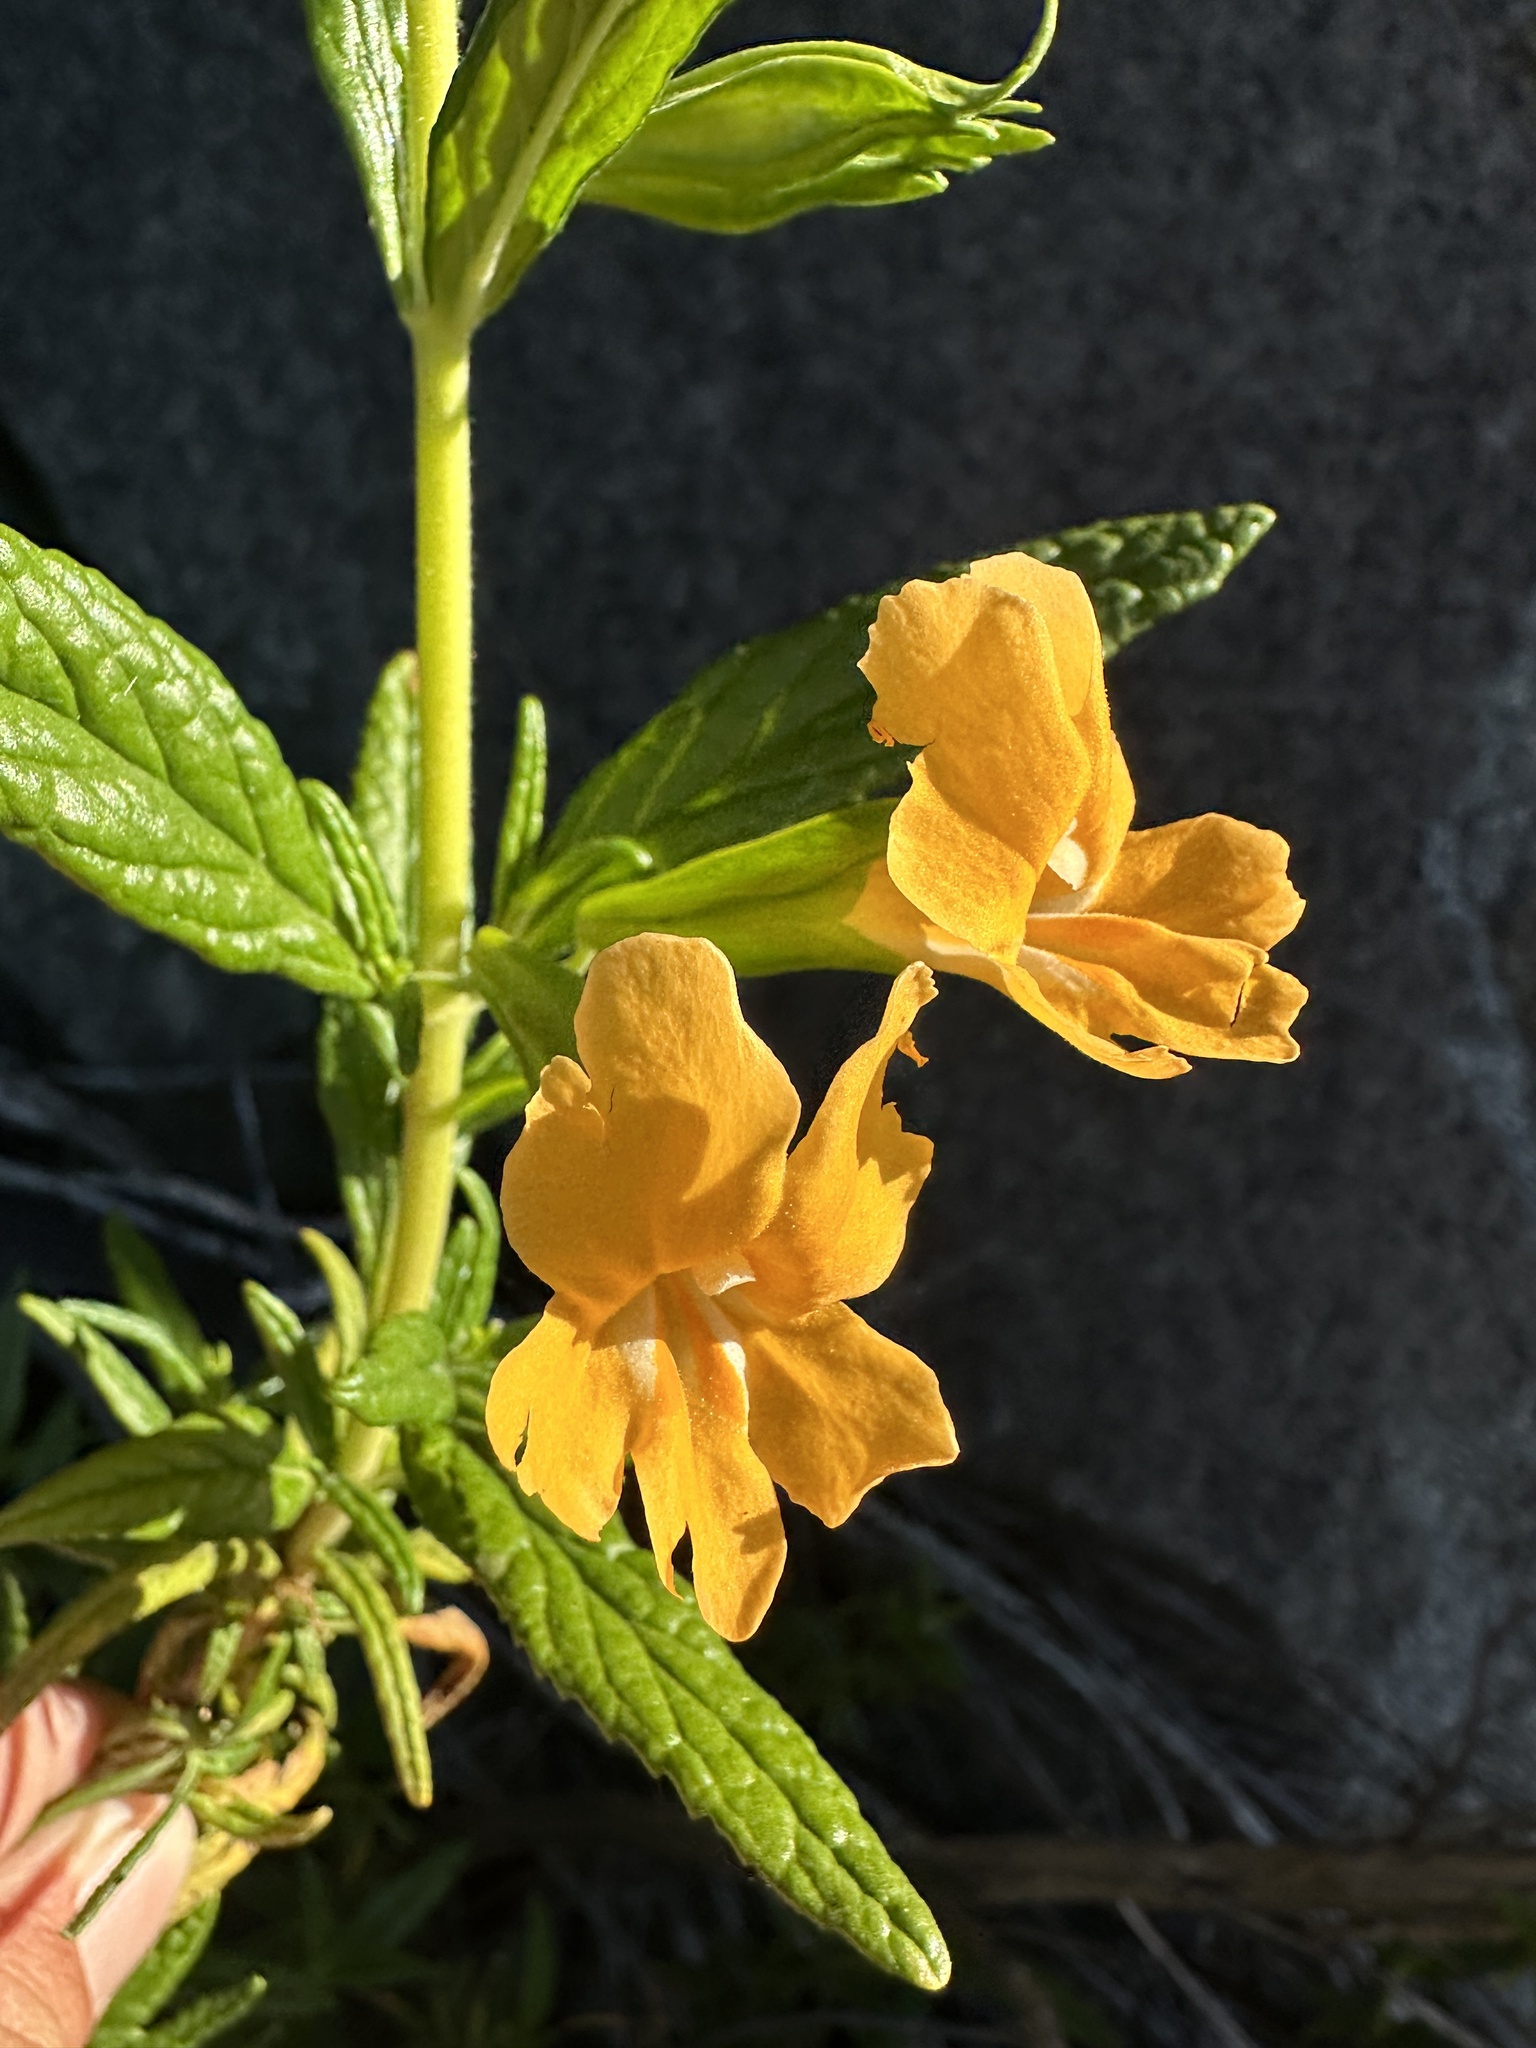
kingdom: Plantae
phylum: Tracheophyta
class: Magnoliopsida
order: Lamiales
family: Phrymaceae
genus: Diplacus
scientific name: Diplacus aurantiacus
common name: Bush monkey-flower
